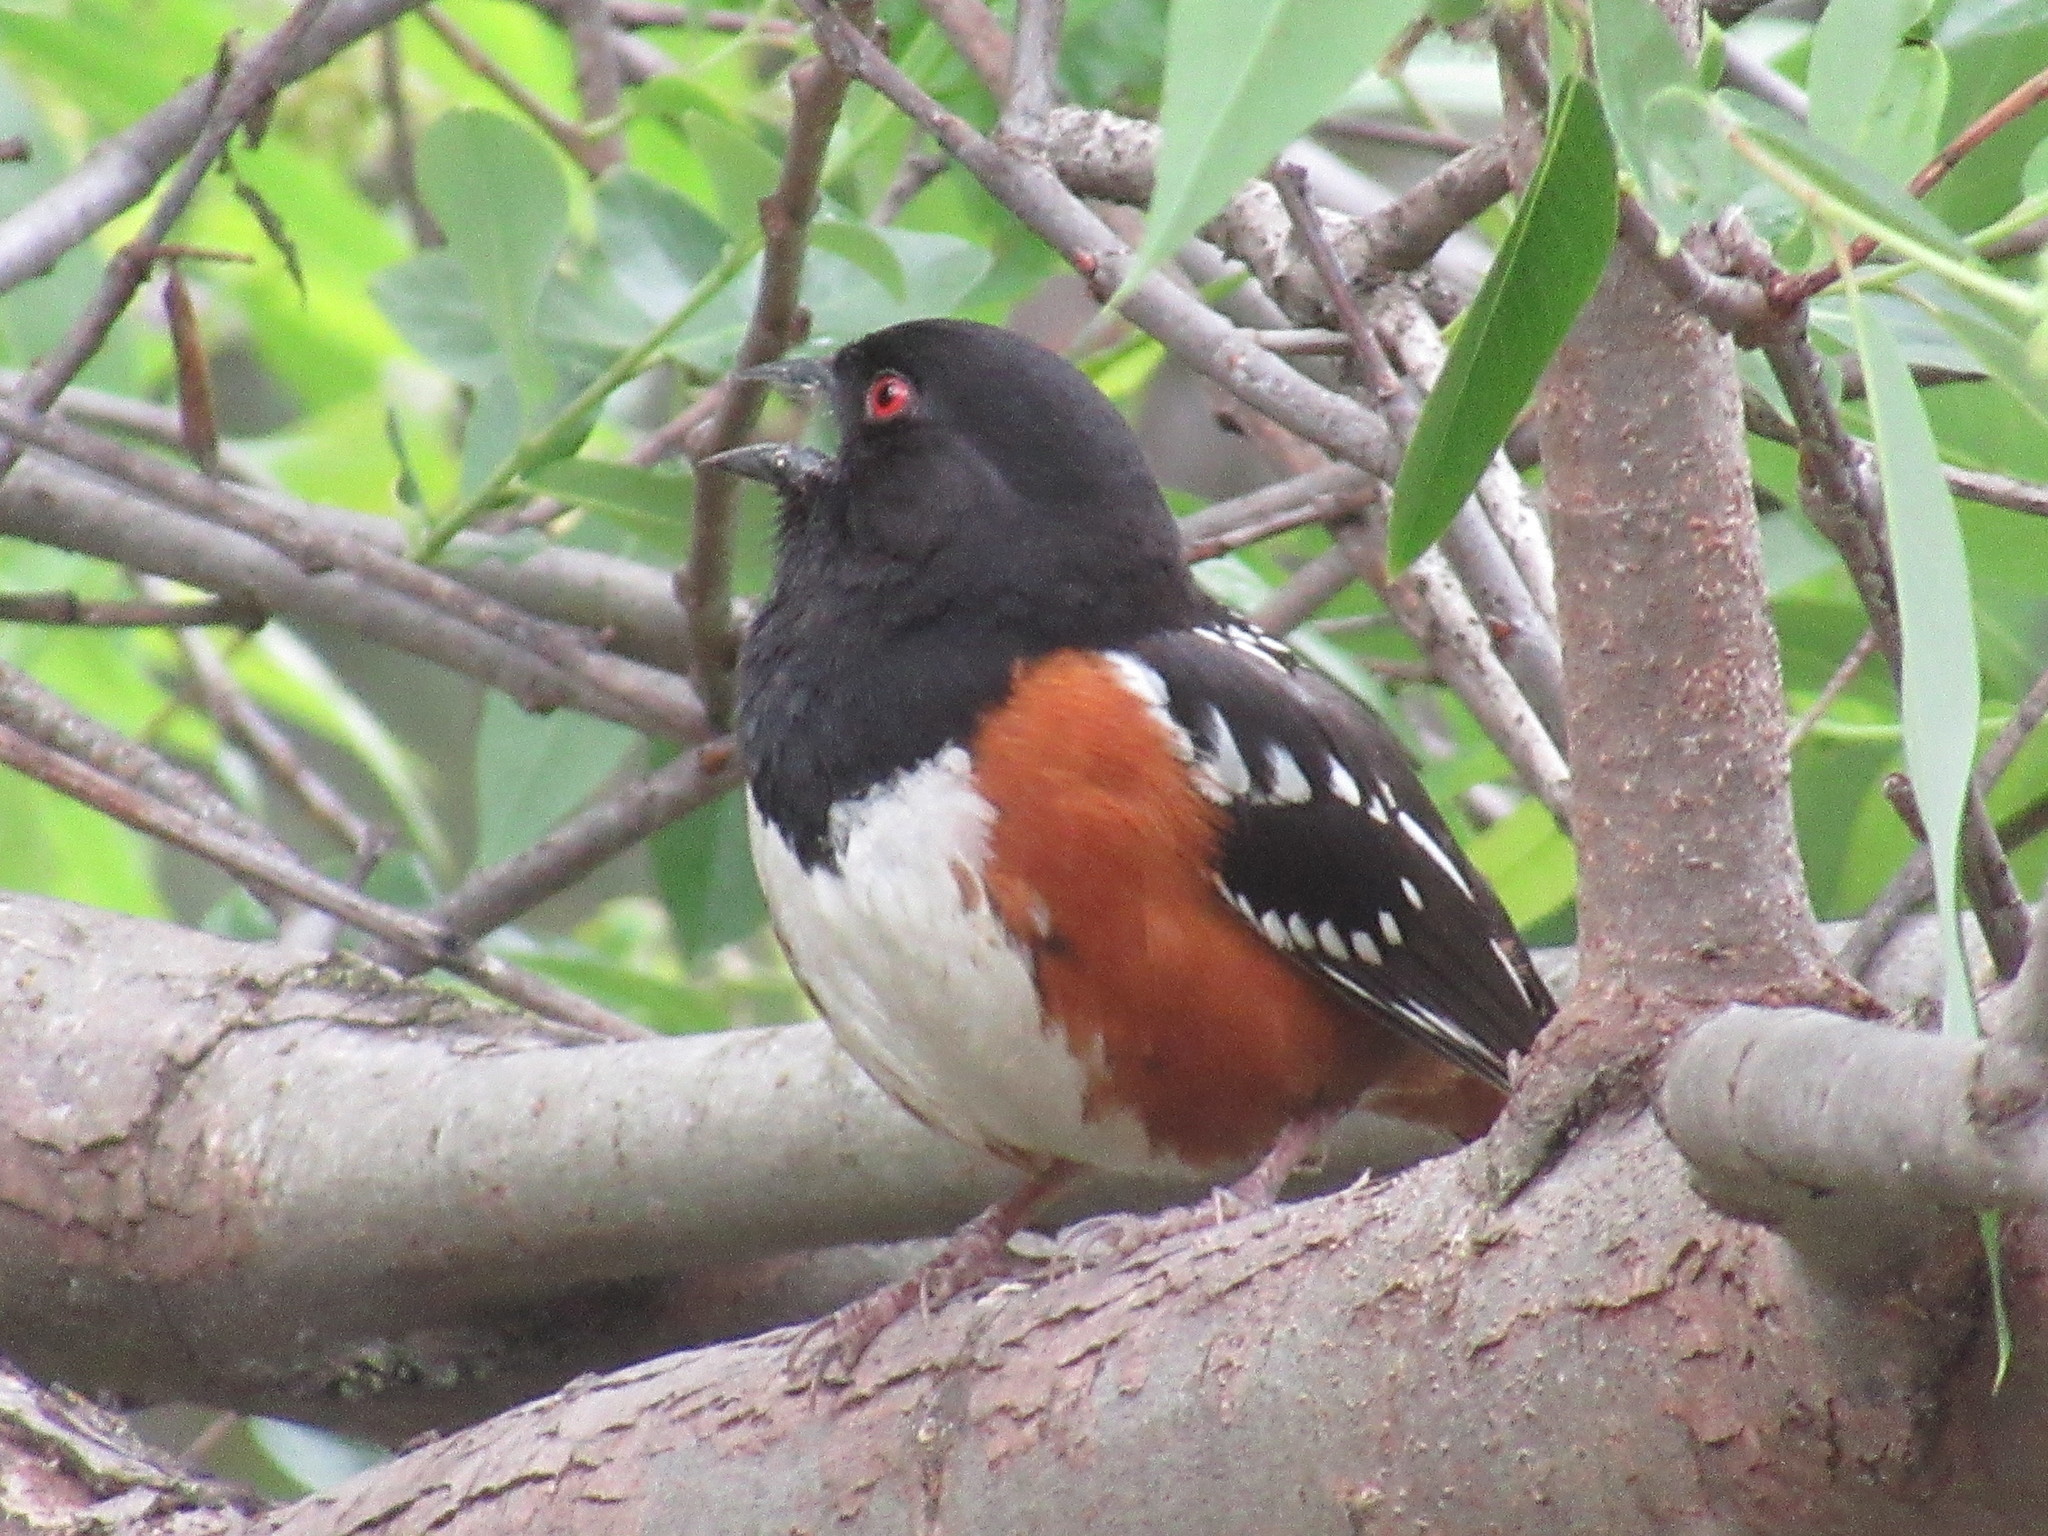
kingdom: Animalia
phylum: Chordata
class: Aves
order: Passeriformes
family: Passerellidae
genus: Pipilo
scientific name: Pipilo maculatus
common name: Spotted towhee
